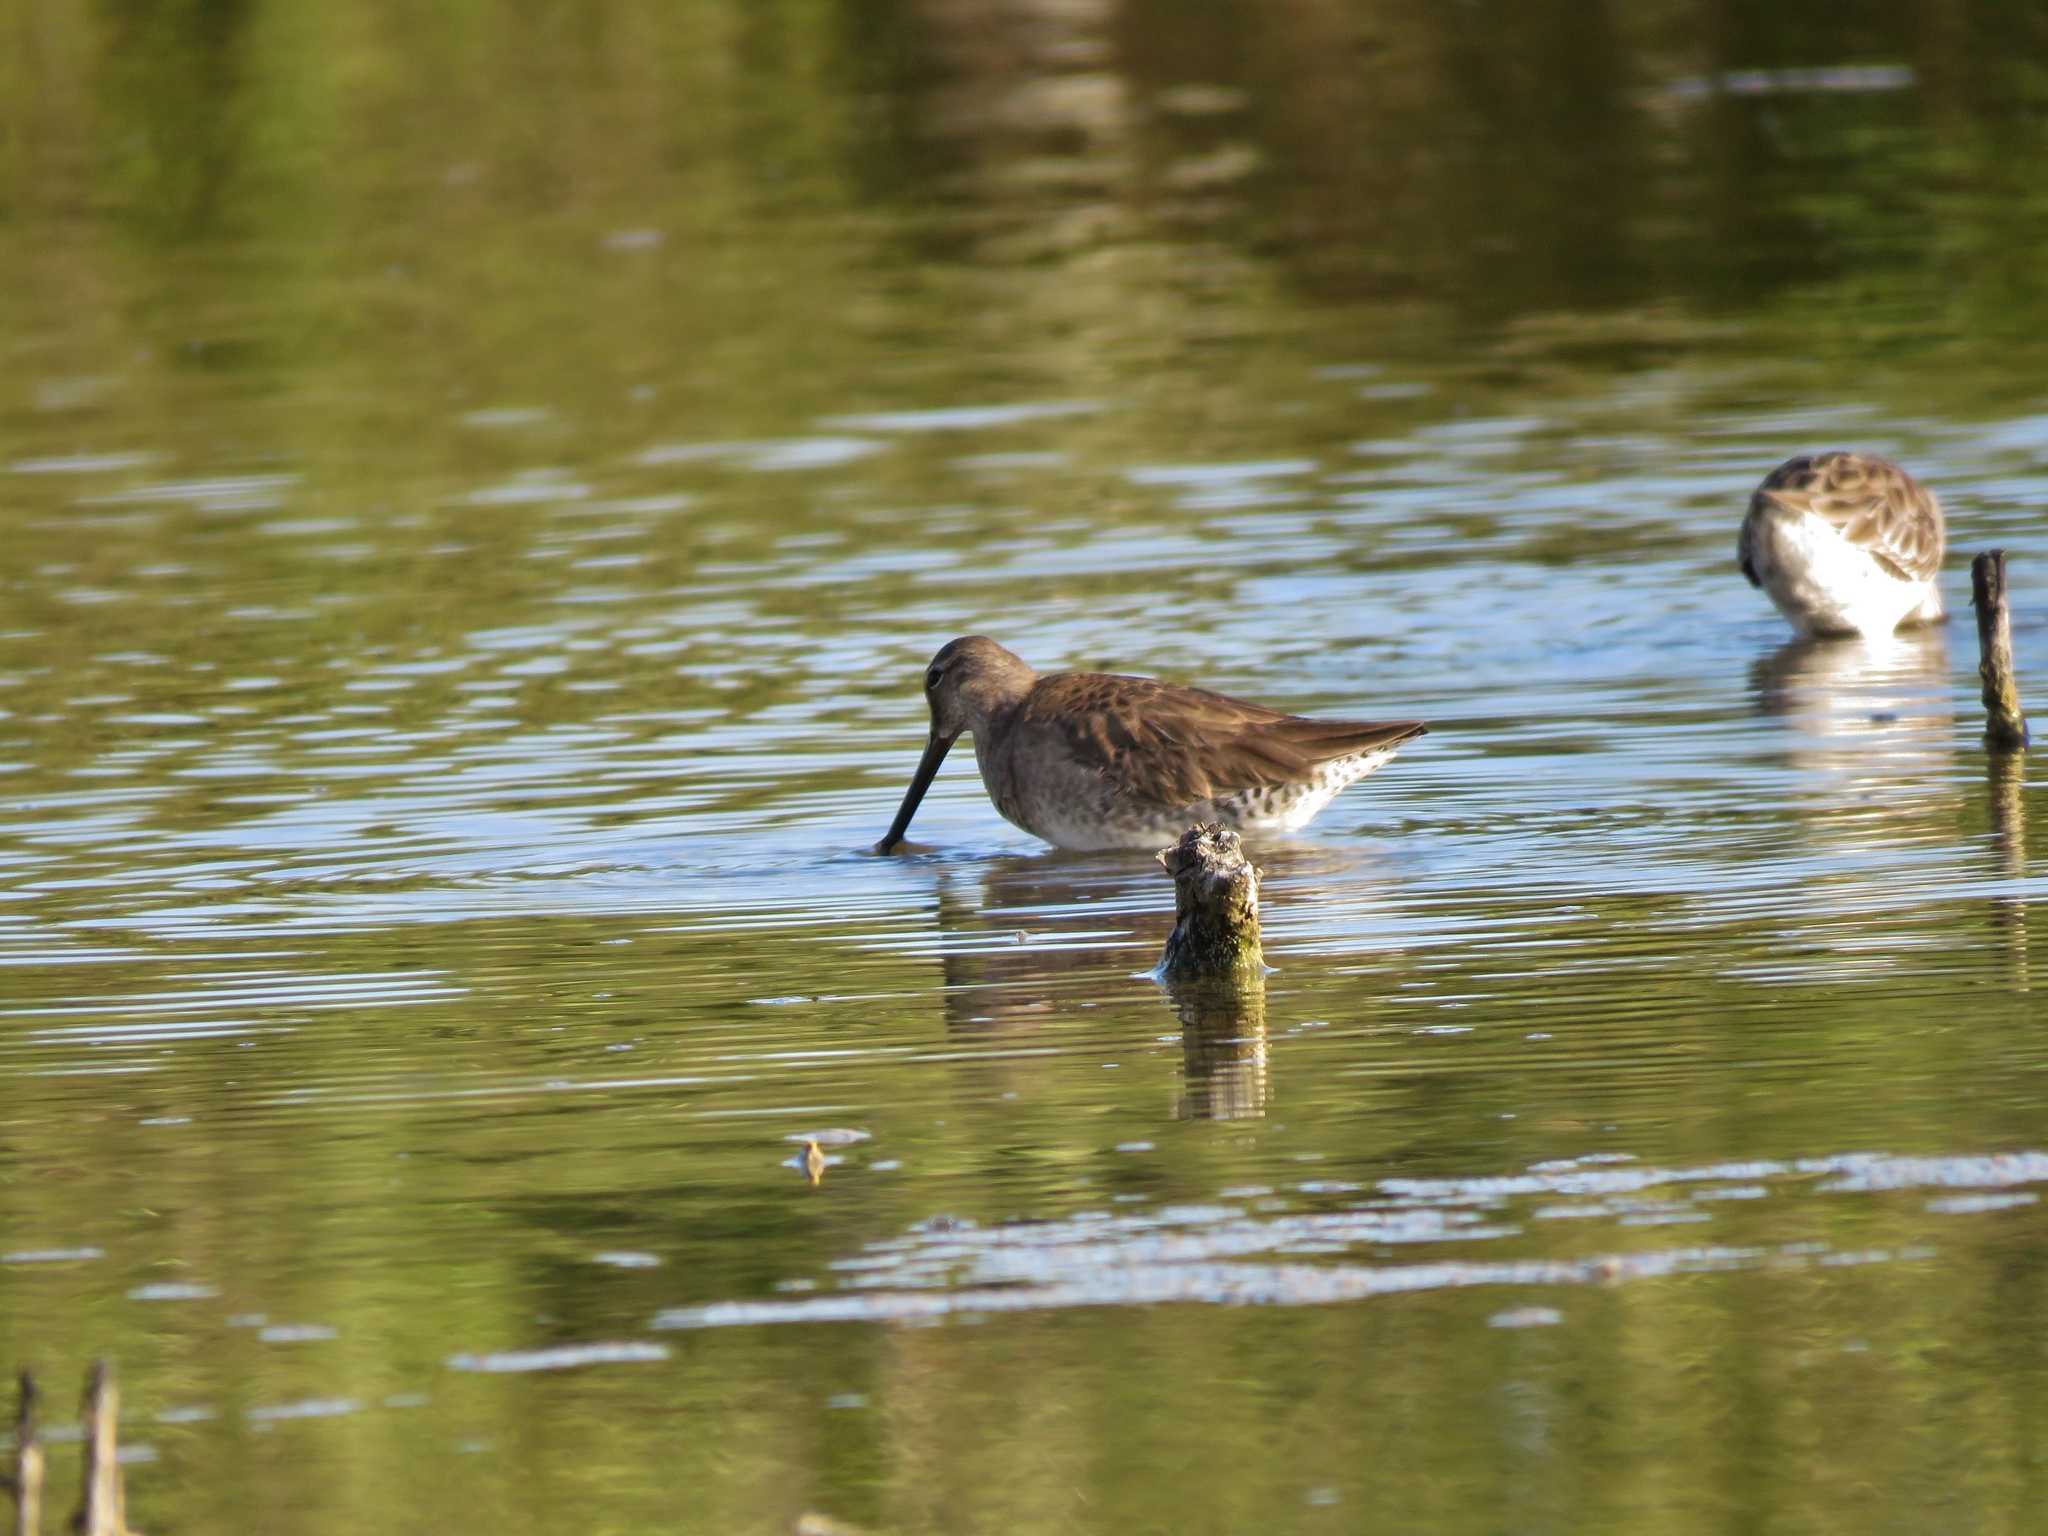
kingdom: Animalia
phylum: Chordata
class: Aves
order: Charadriiformes
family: Scolopacidae
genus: Limnodromus
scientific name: Limnodromus griseus
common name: Short-billed dowitcher
